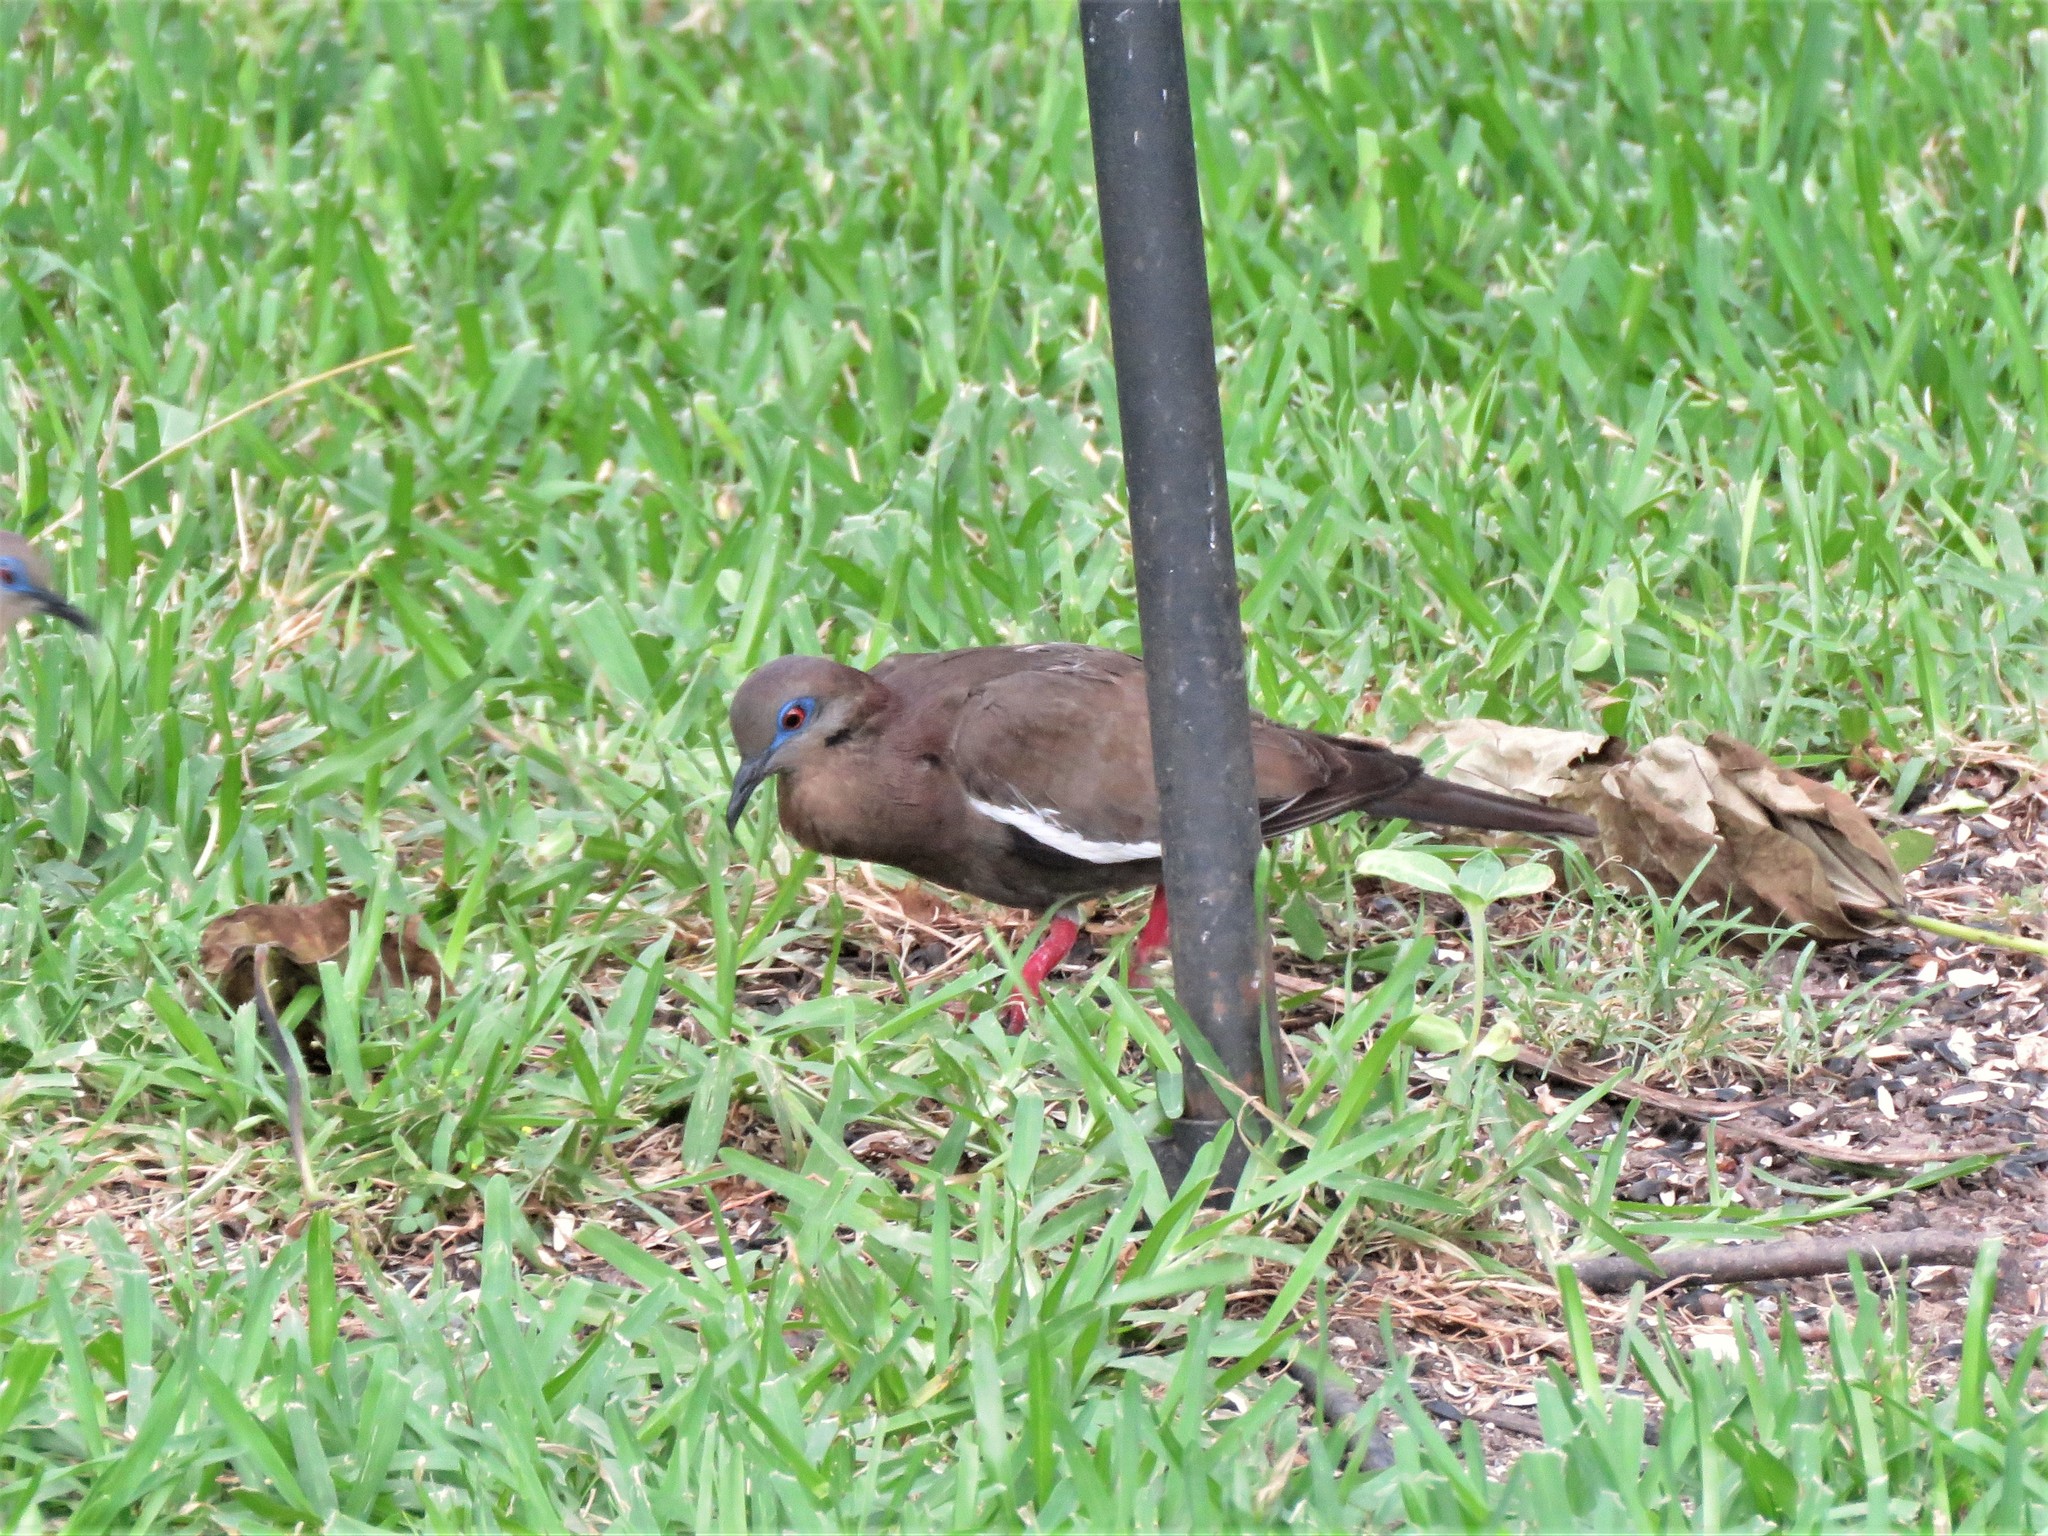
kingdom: Animalia
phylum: Chordata
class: Aves
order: Columbiformes
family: Columbidae
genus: Zenaida
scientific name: Zenaida asiatica
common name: White-winged dove
